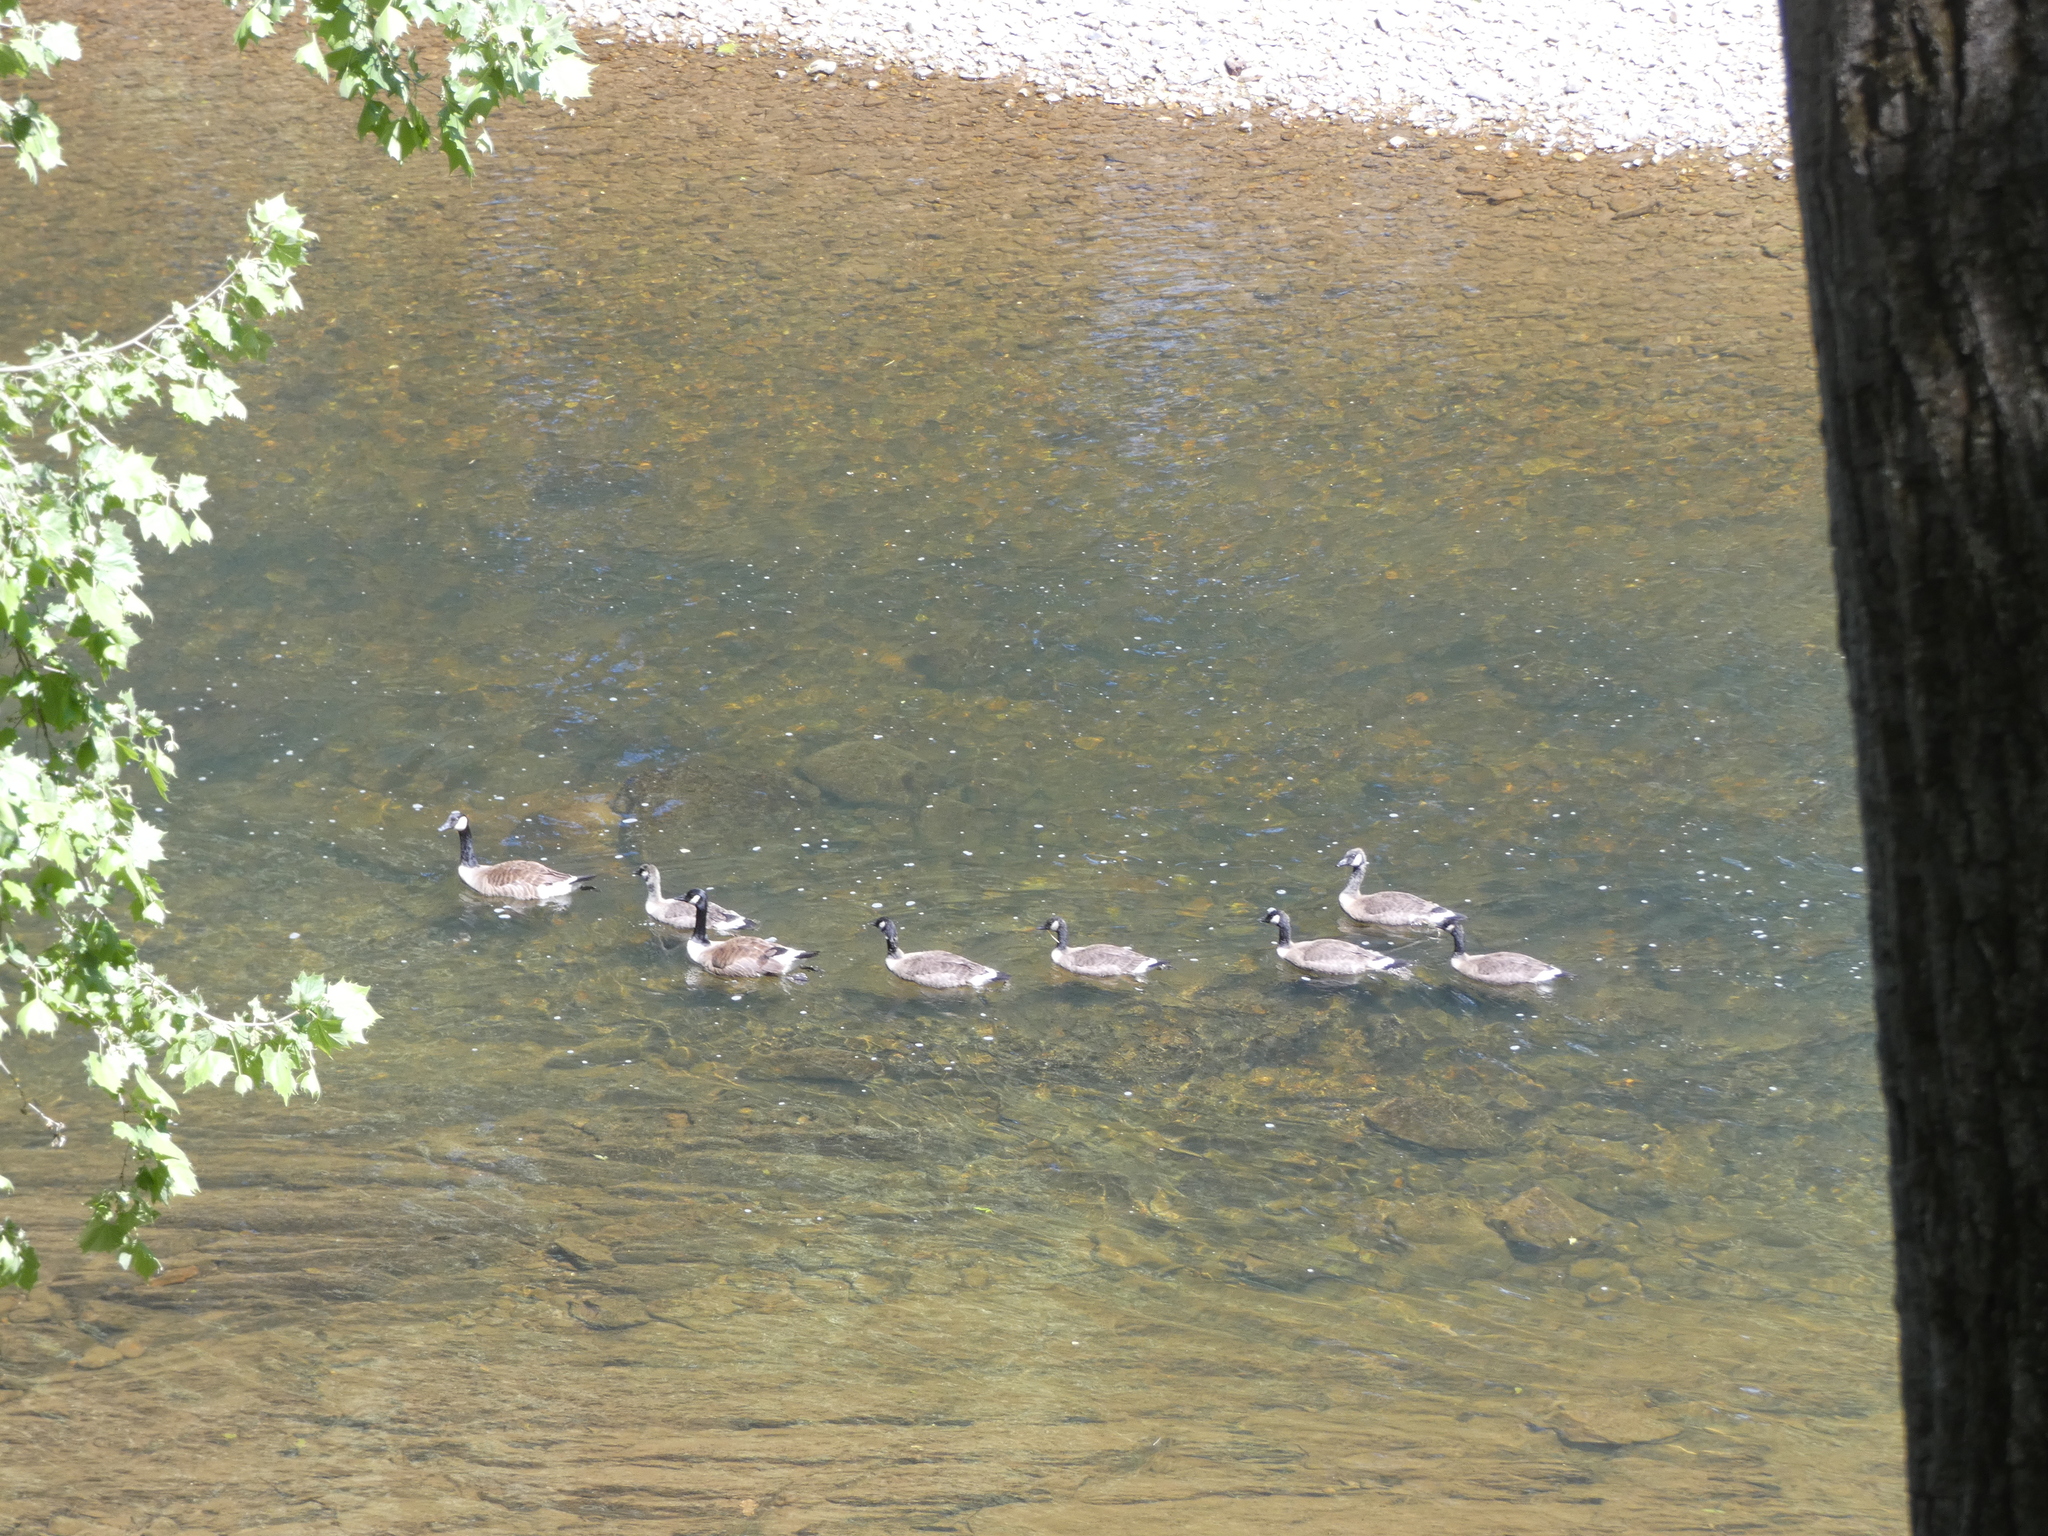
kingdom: Animalia
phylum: Chordata
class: Aves
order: Anseriformes
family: Anatidae
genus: Branta
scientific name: Branta canadensis
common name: Canada goose
